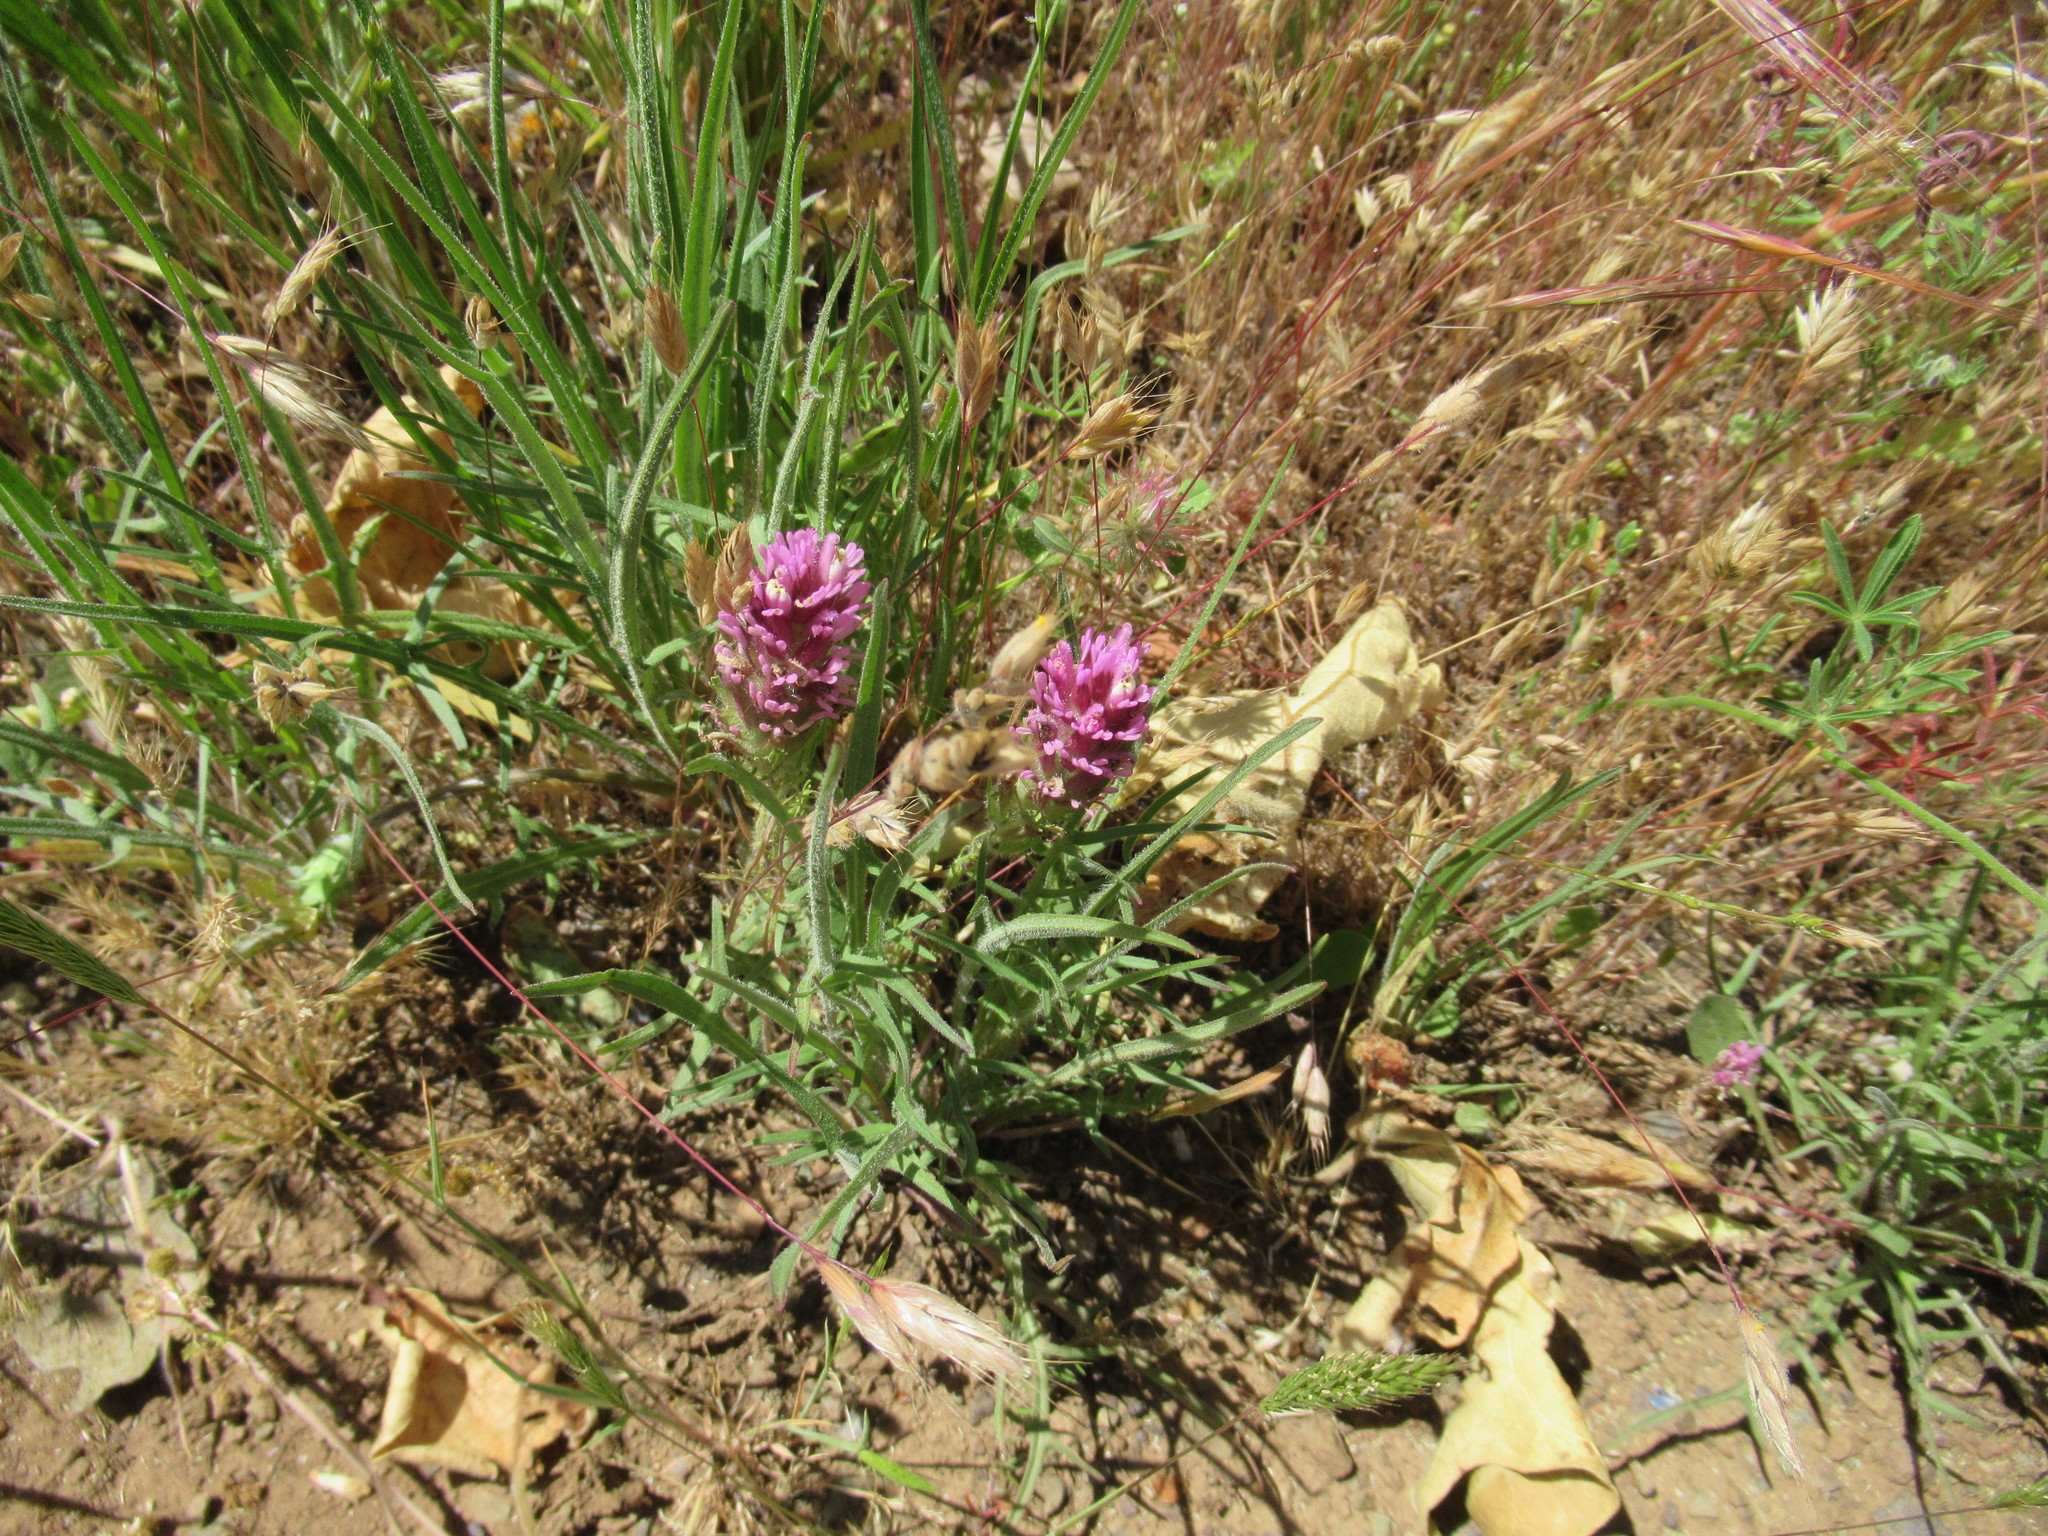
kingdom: Plantae
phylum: Tracheophyta
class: Magnoliopsida
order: Lamiales
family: Orobanchaceae
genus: Castilleja
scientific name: Castilleja exserta
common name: Purple owl-clover
